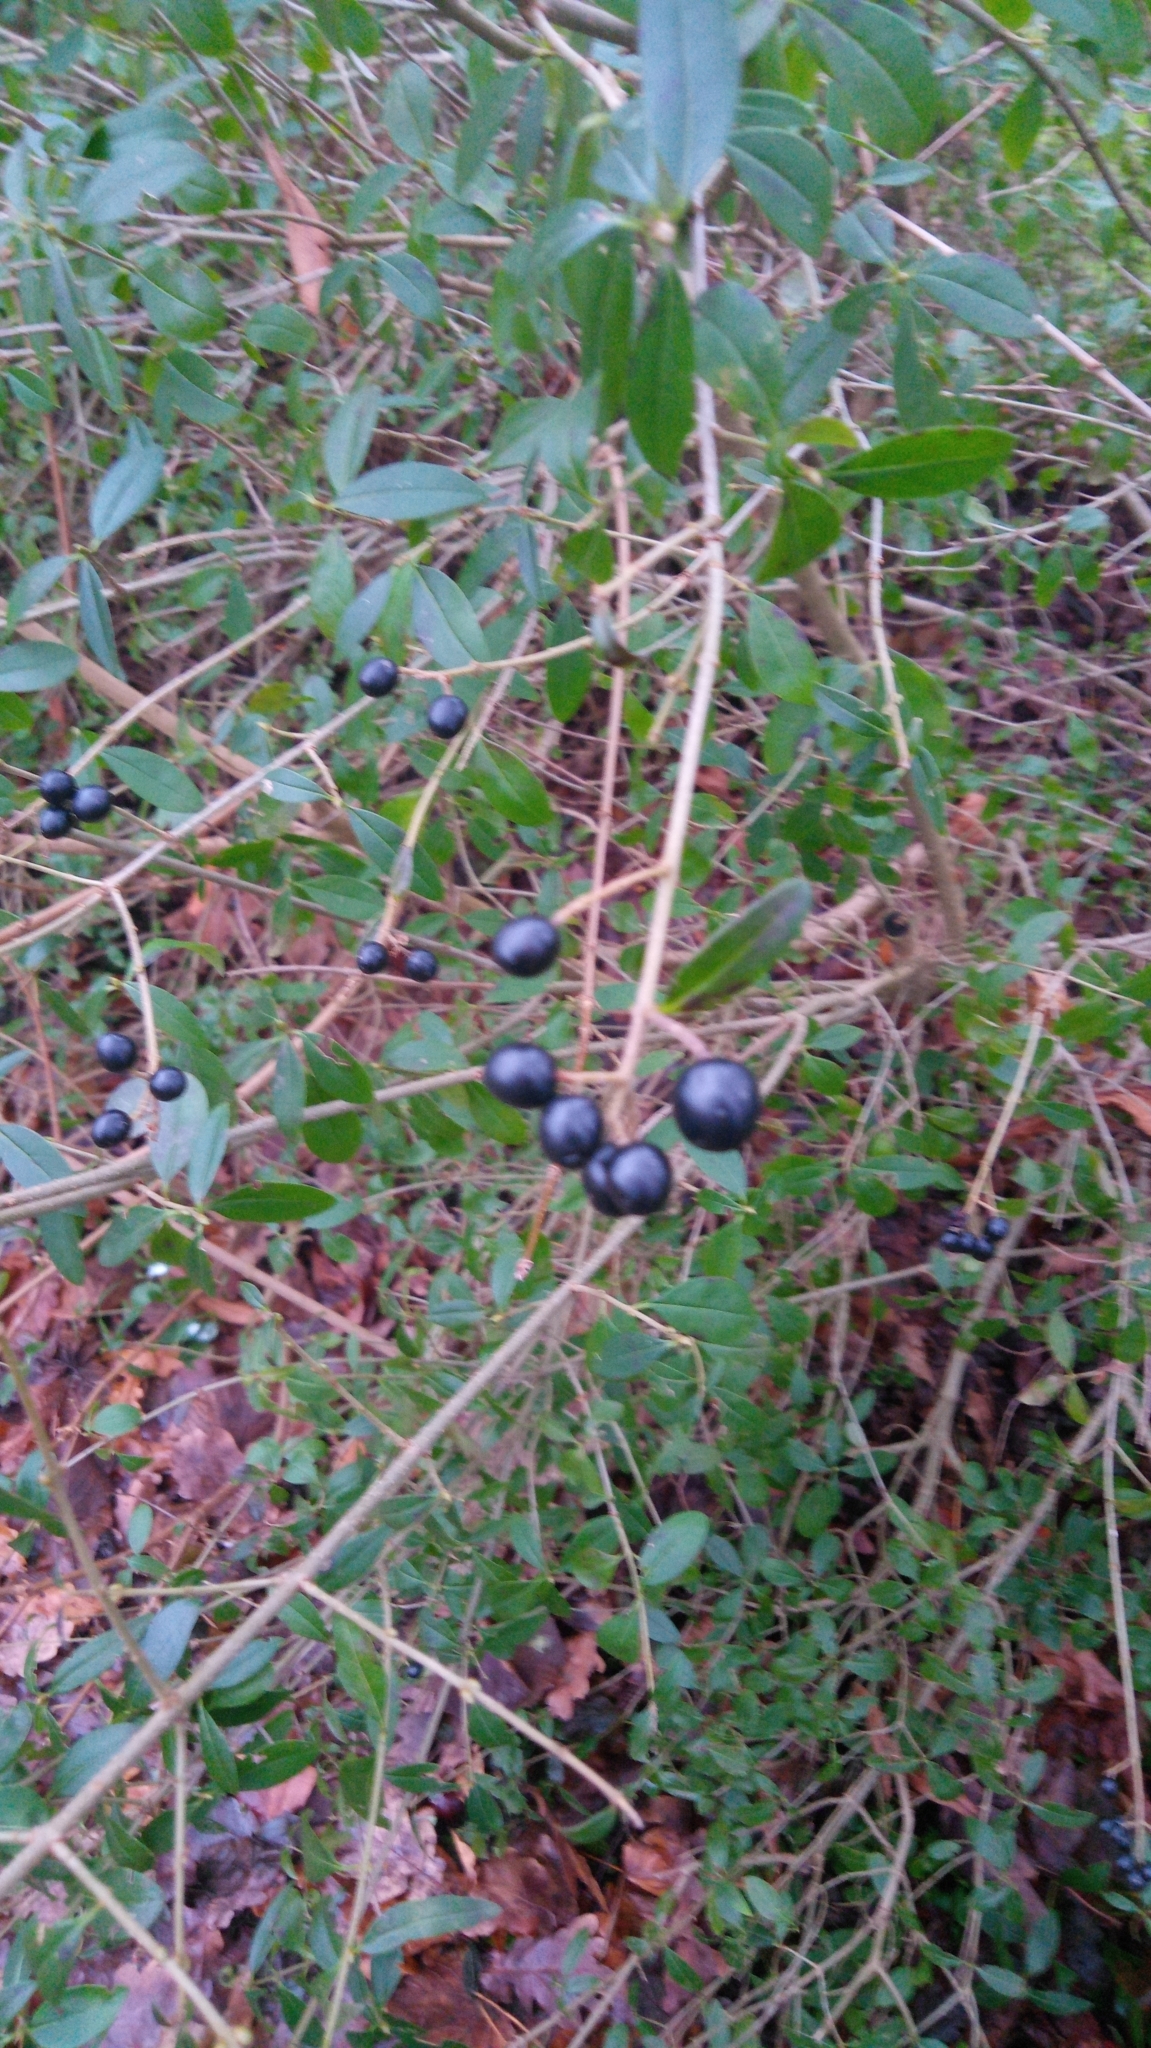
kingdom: Plantae
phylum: Tracheophyta
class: Magnoliopsida
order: Lamiales
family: Oleaceae
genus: Ligustrum
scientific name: Ligustrum vulgare
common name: Wild privet
